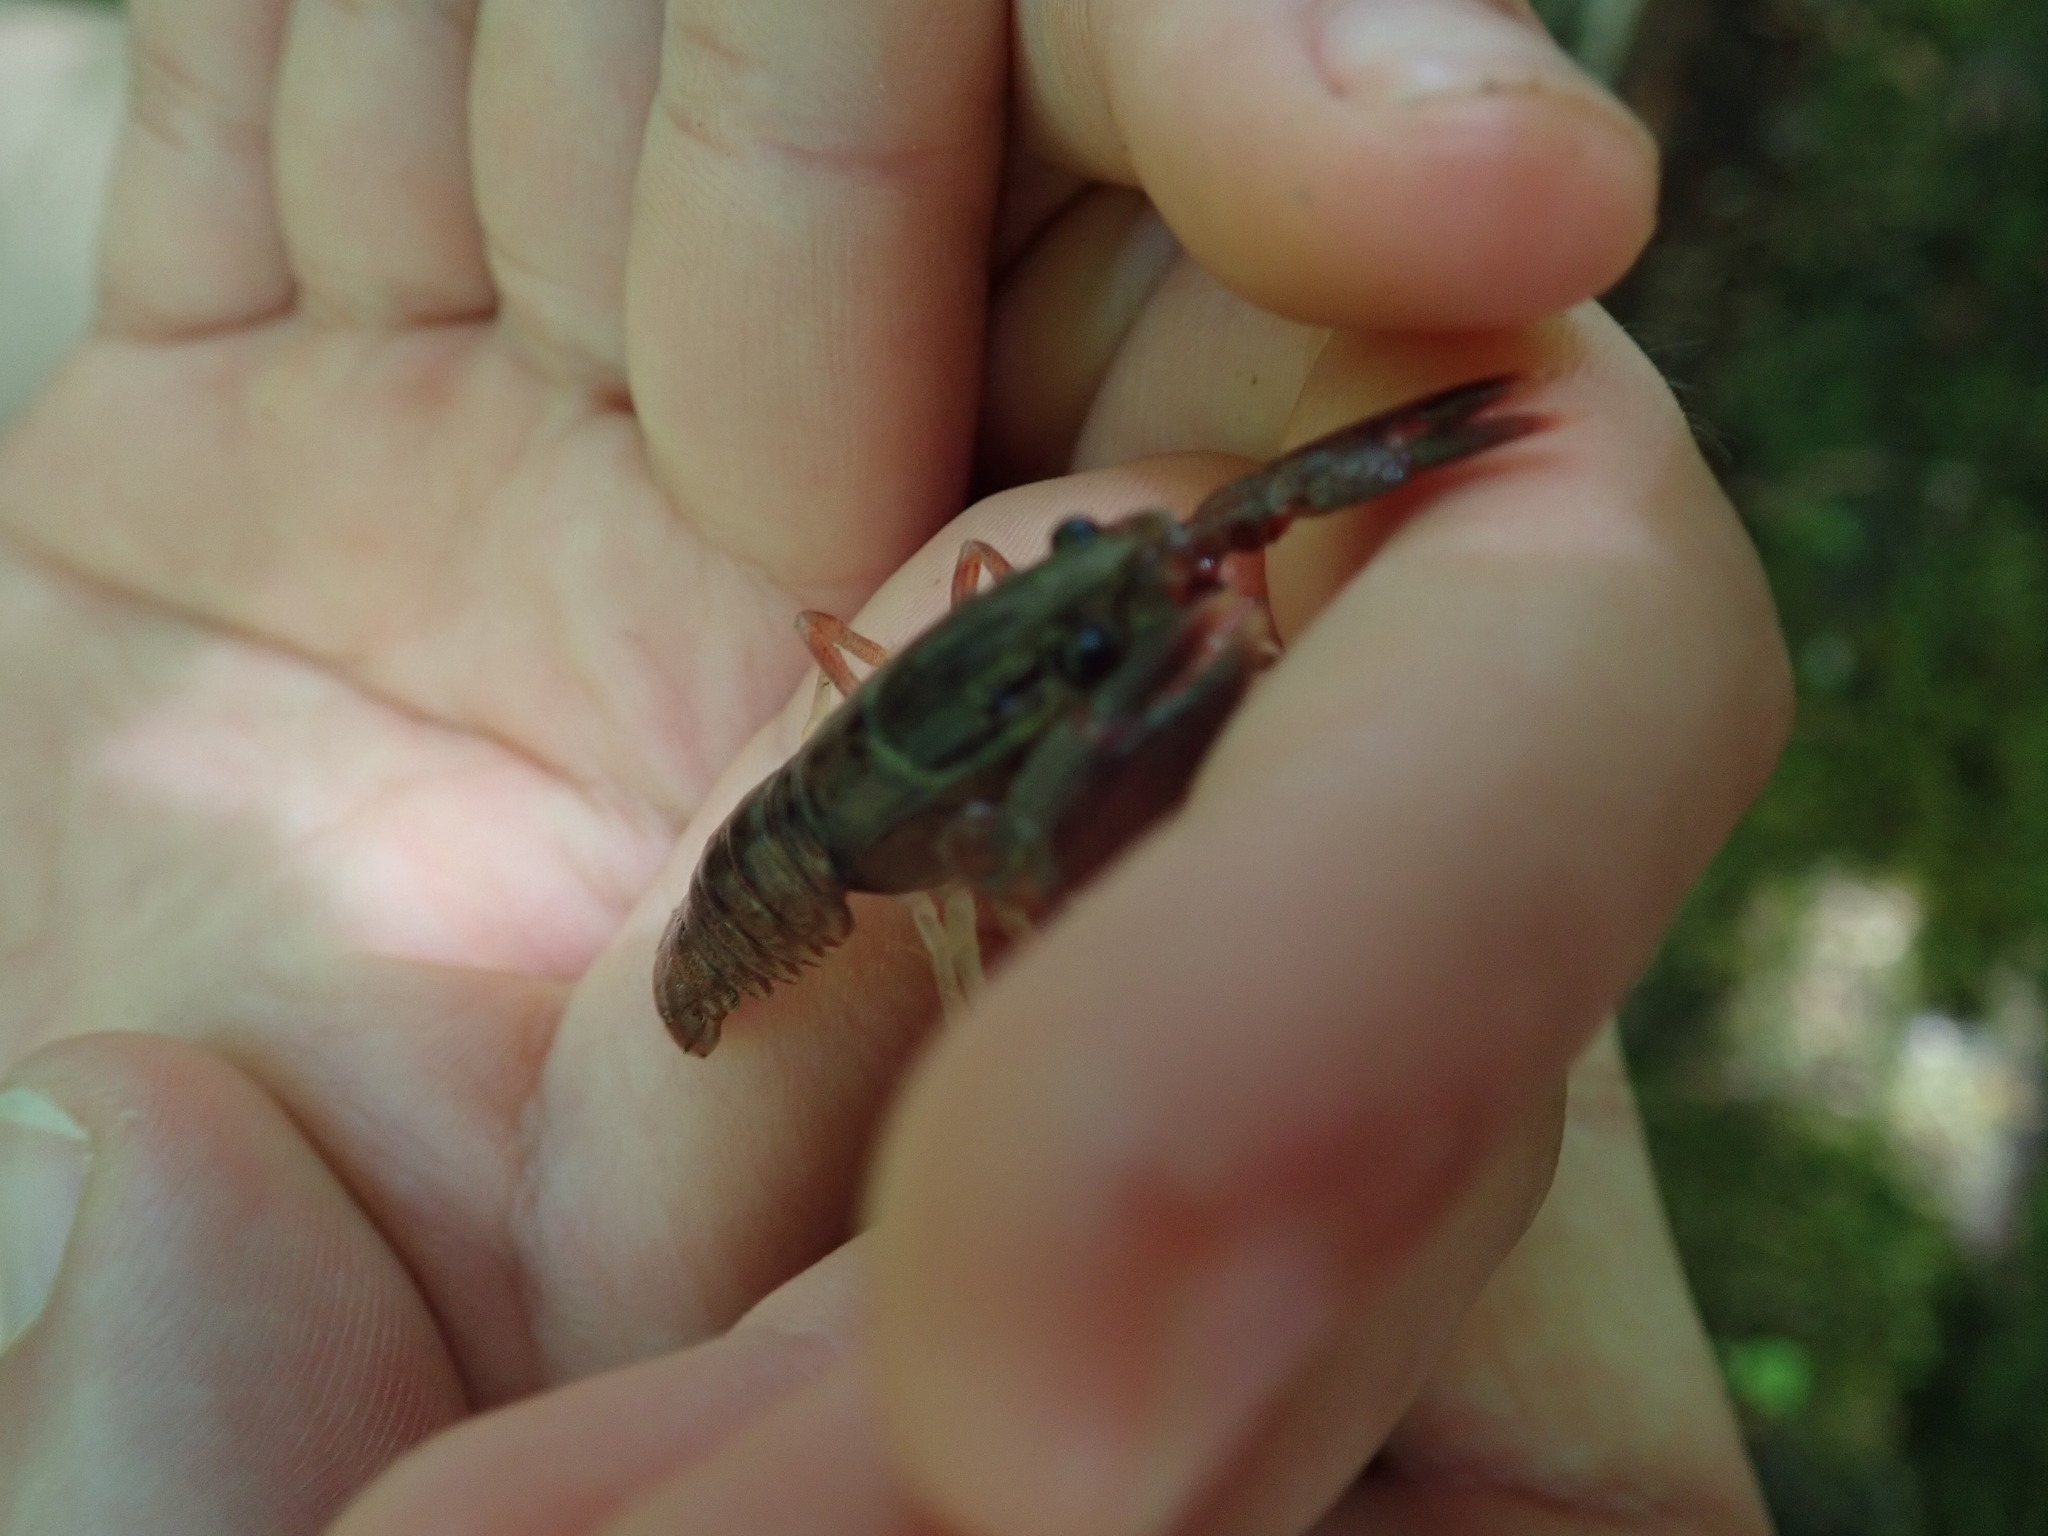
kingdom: Animalia
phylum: Arthropoda
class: Malacostraca
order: Decapoda
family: Astacidae
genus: Pacifastacus
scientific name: Pacifastacus leniusculus
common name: Signal crayfish
